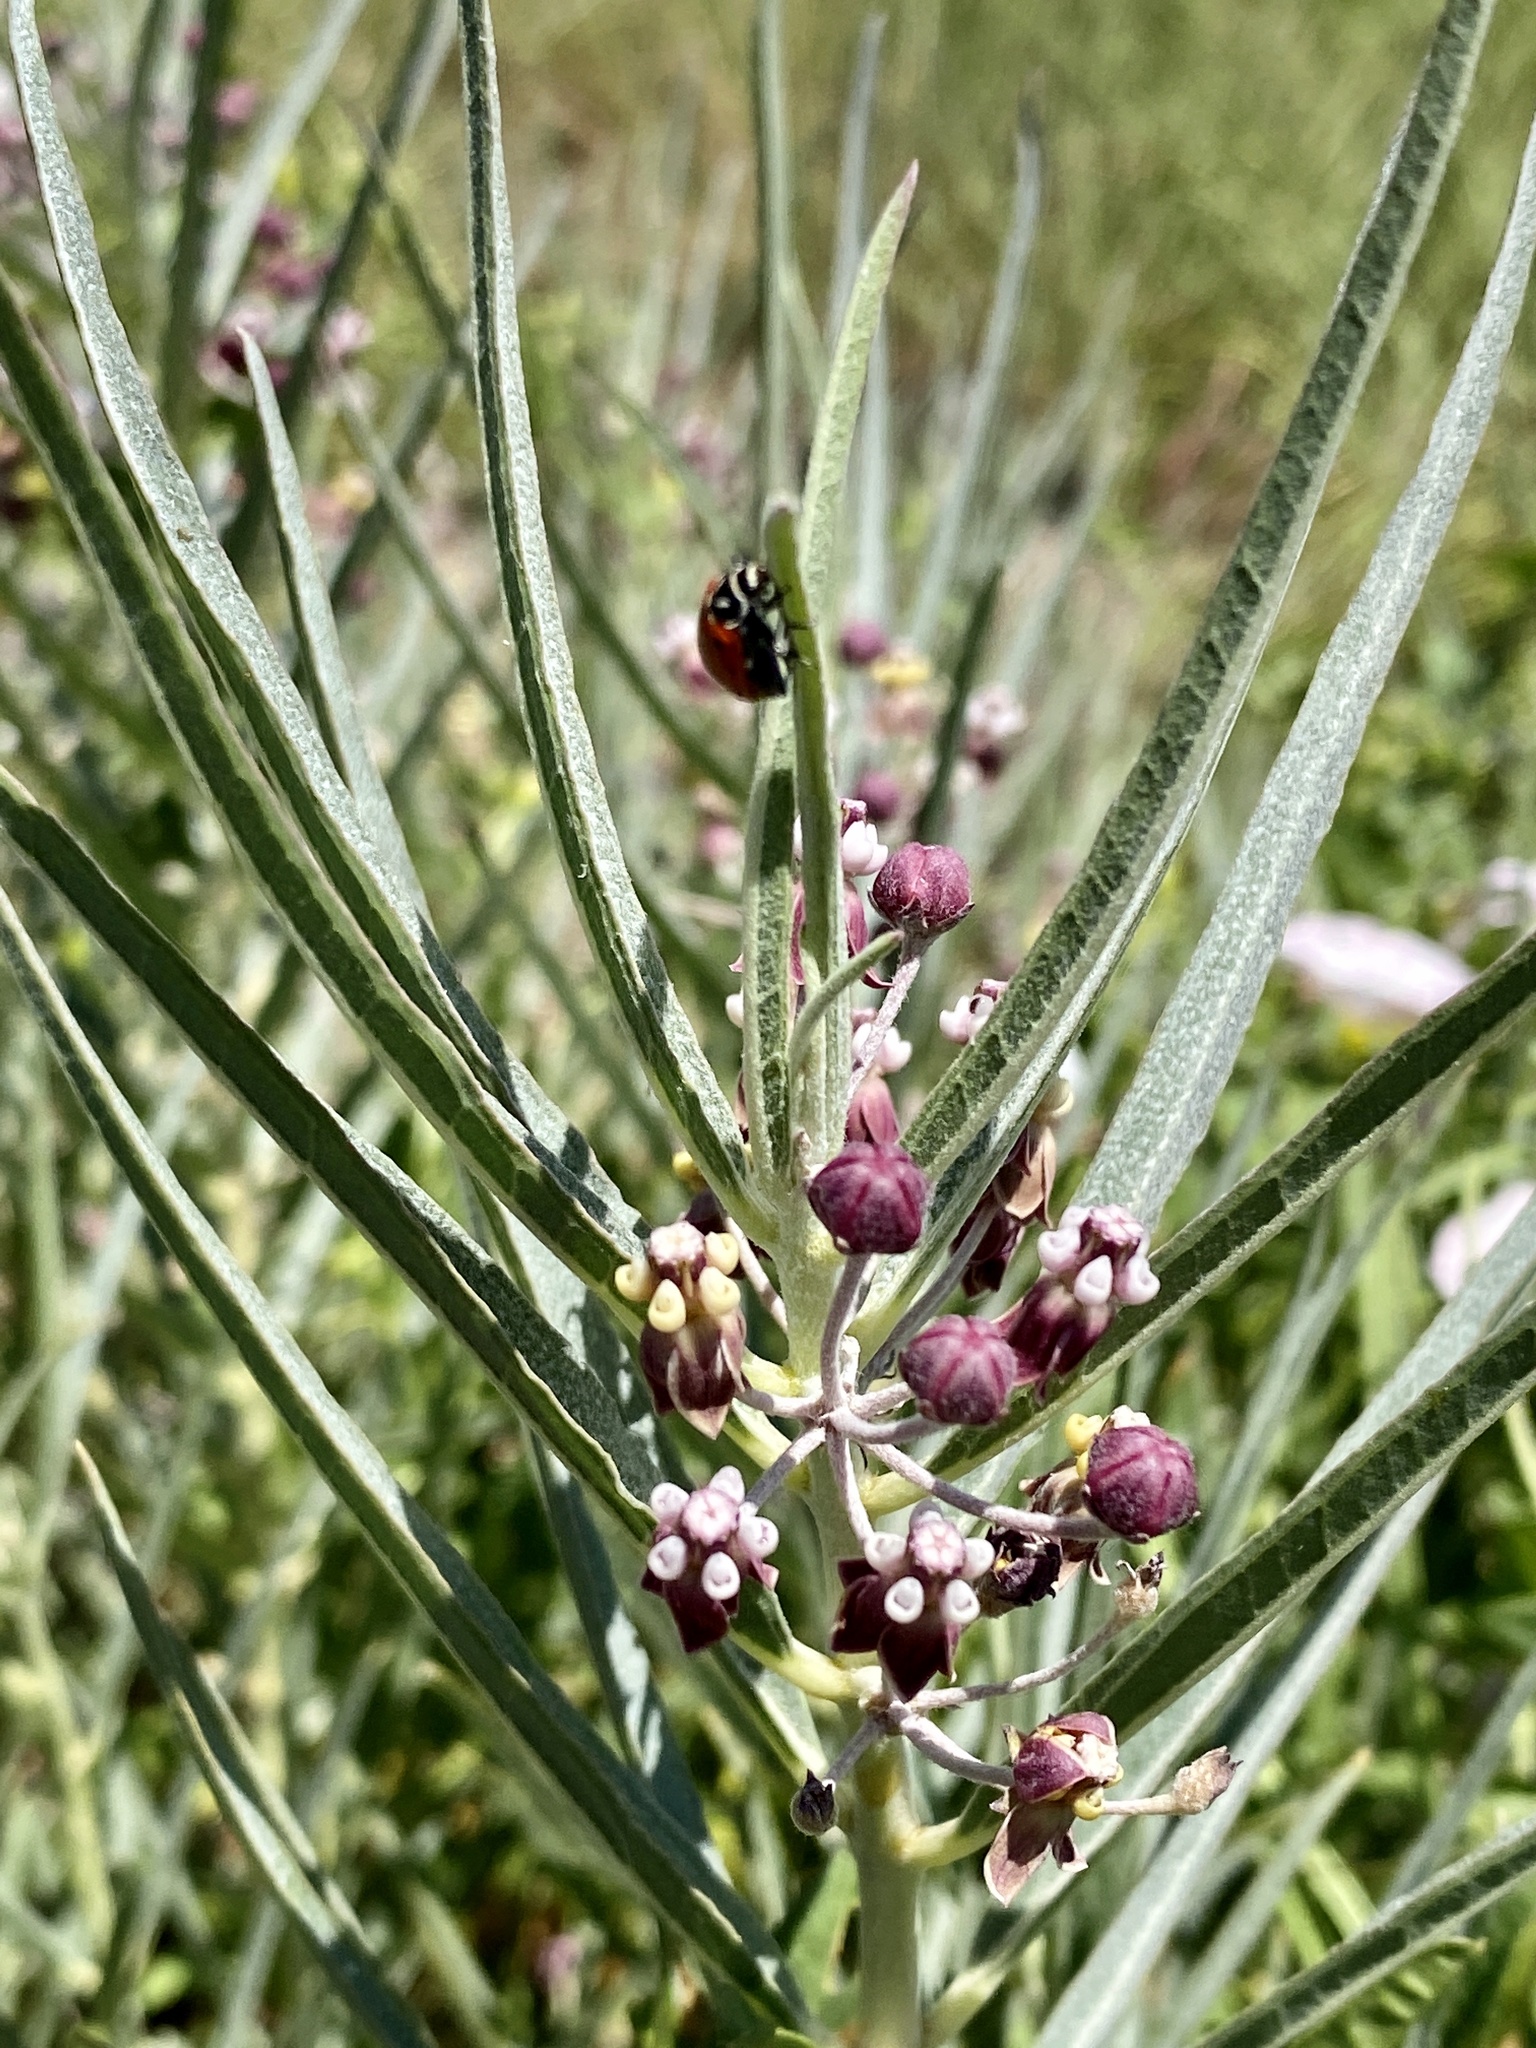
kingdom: Plantae
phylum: Tracheophyta
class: Magnoliopsida
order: Gentianales
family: Apocynaceae
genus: Asclepias
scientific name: Asclepias brachystephana
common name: Shortcrown milkweed
